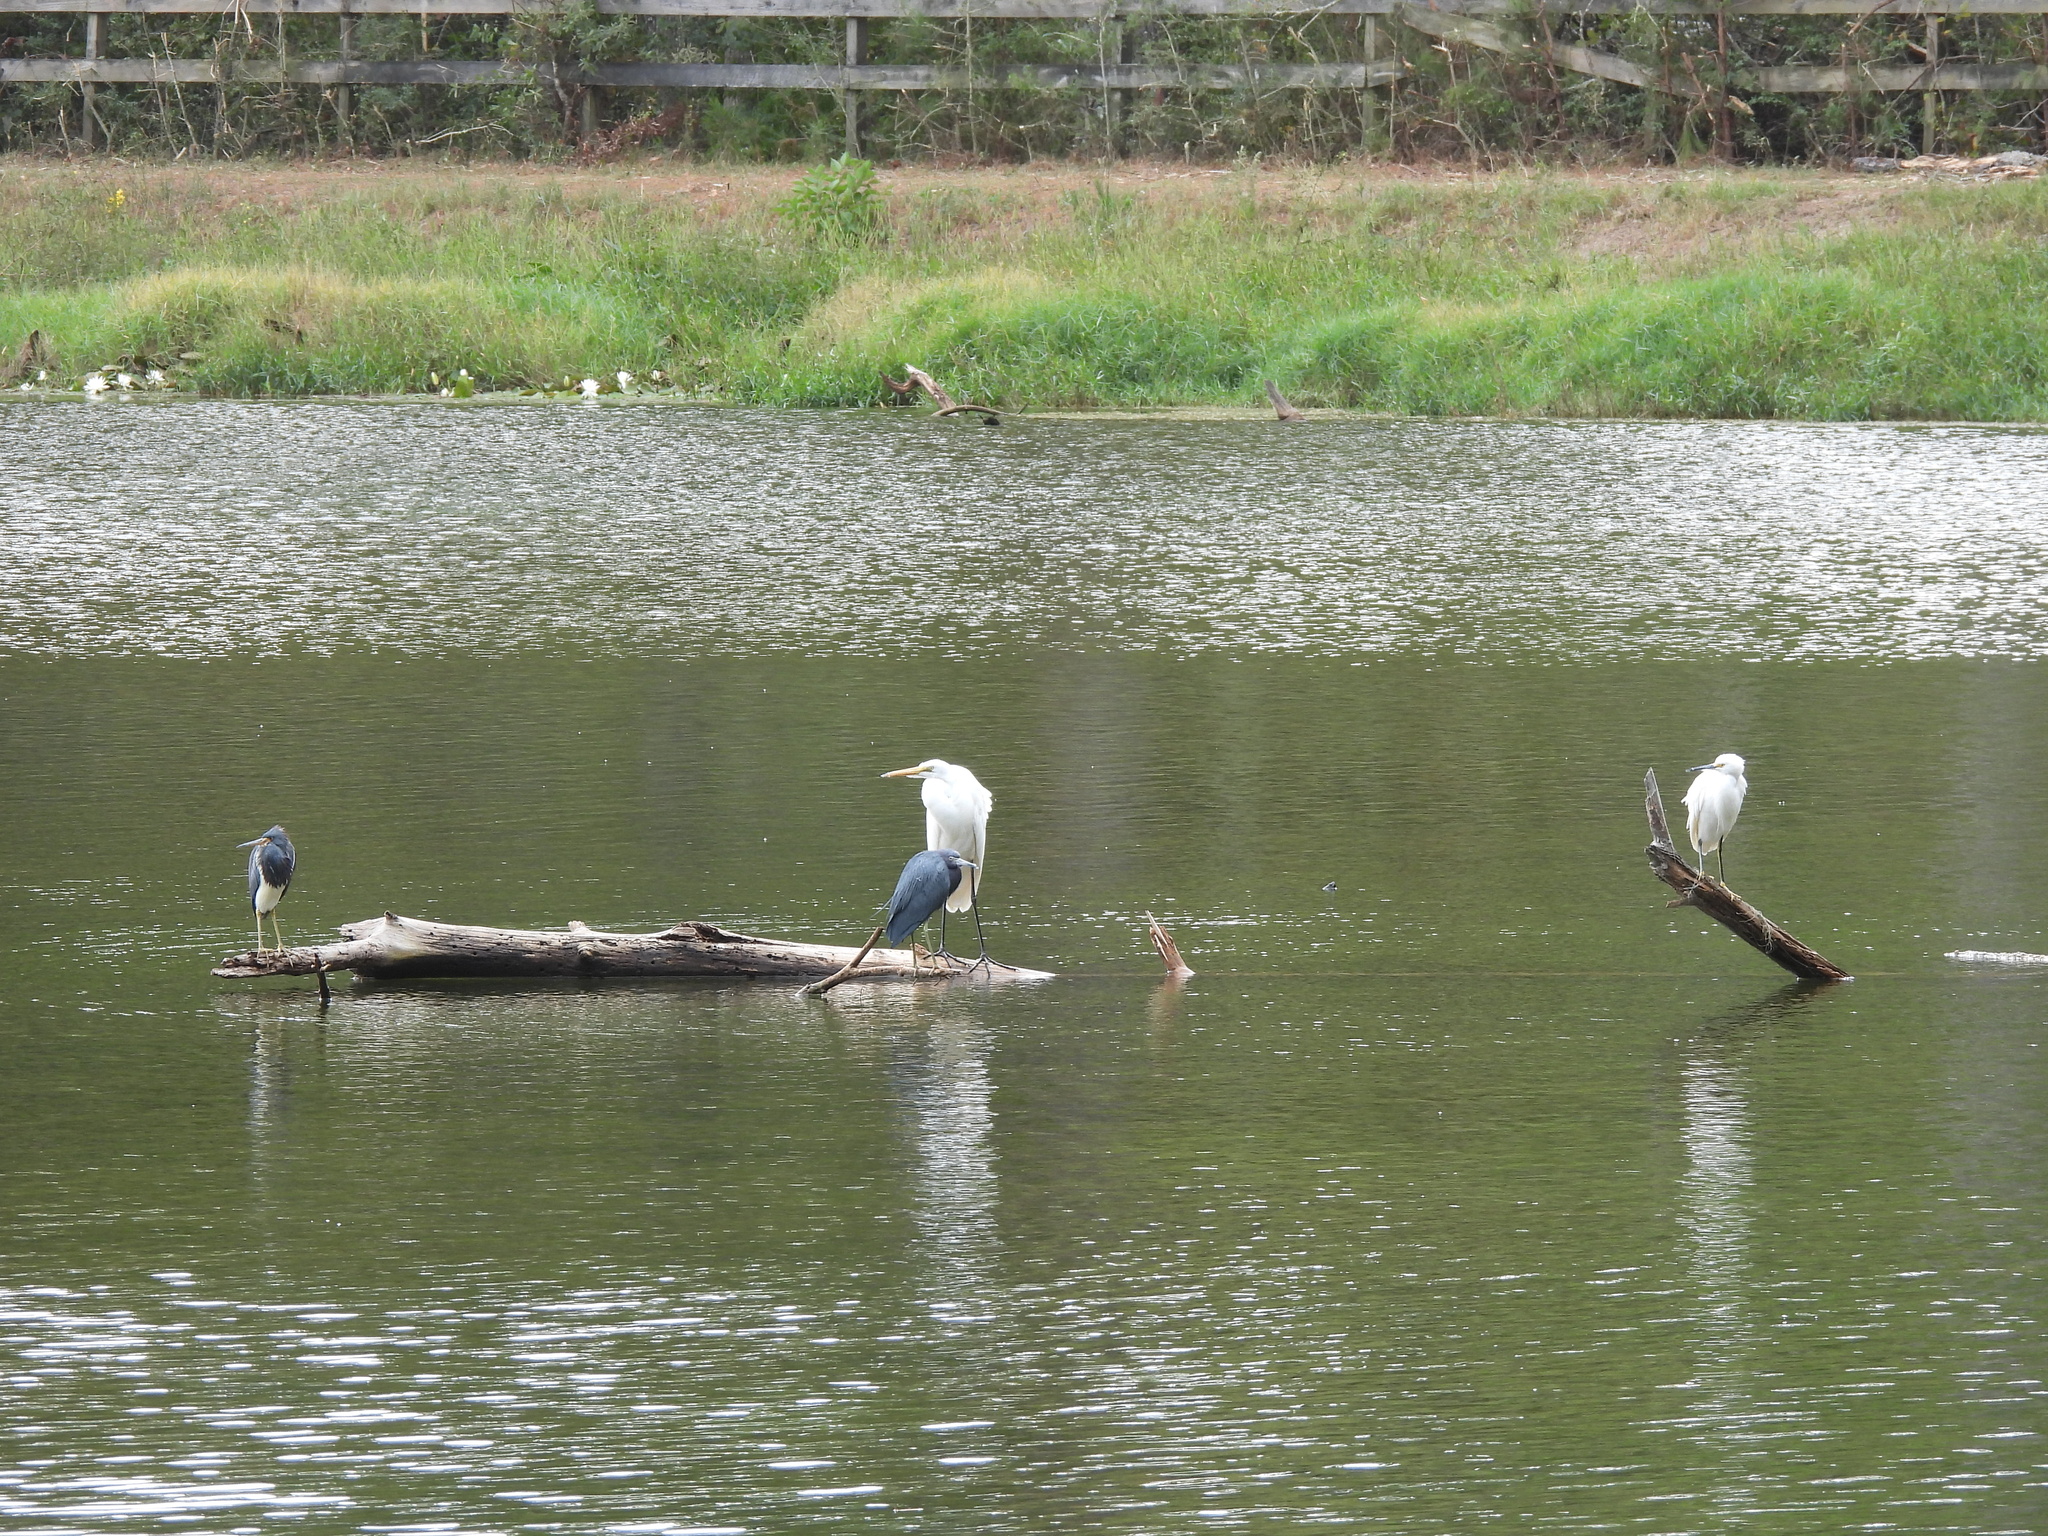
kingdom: Animalia
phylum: Chordata
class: Aves
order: Pelecaniformes
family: Ardeidae
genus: Ardea
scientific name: Ardea alba
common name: Great egret
